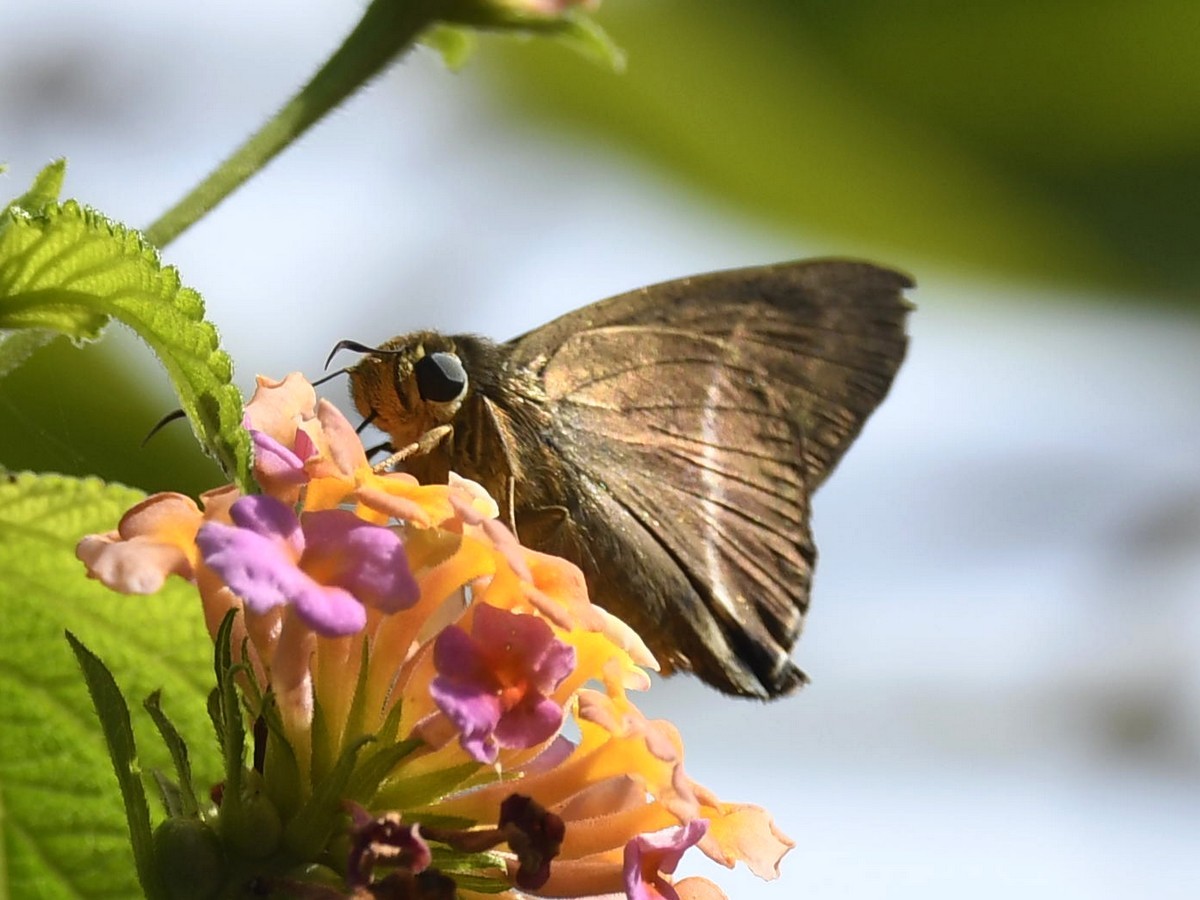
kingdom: Animalia
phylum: Arthropoda
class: Insecta
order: Lepidoptera
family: Hesperiidae
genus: Hasora
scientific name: Hasora chromus
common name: Common banded awl
